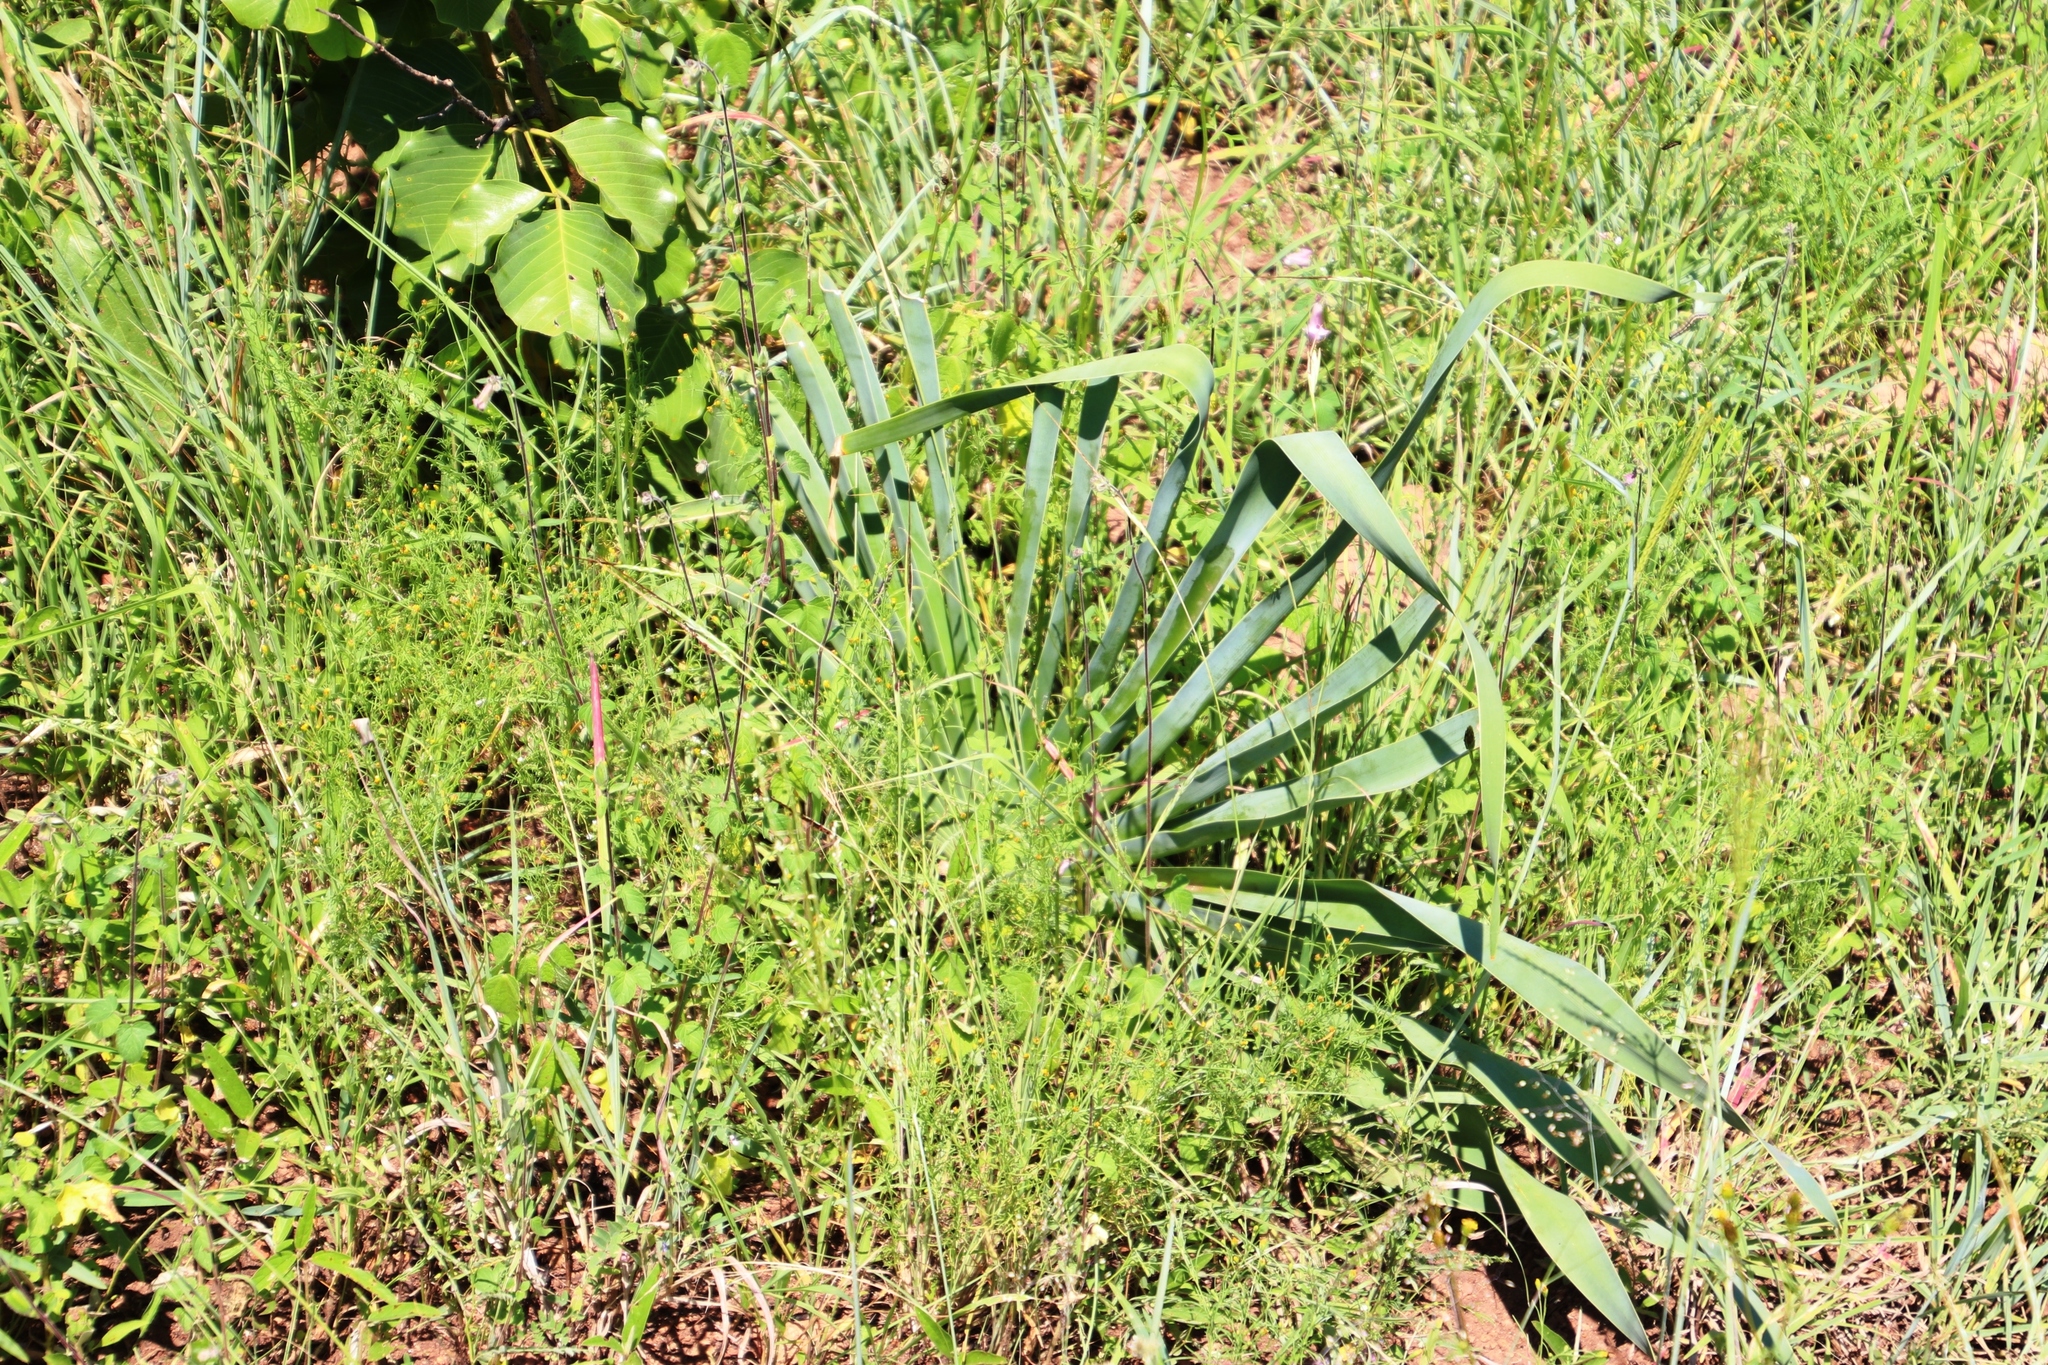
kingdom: Plantae
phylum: Tracheophyta
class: Liliopsida
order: Asparagales
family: Amaryllidaceae
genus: Boophone
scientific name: Boophone disticha
